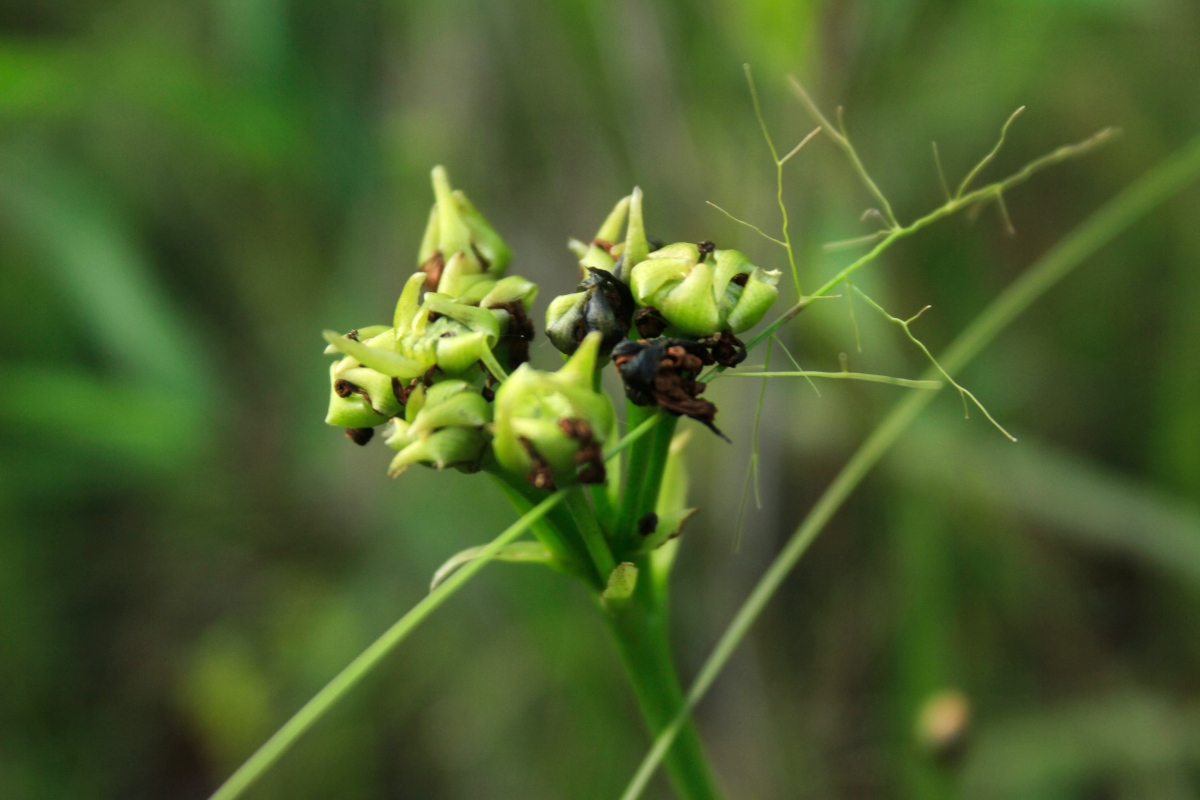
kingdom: Plantae
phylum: Tracheophyta
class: Magnoliopsida
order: Caryophyllales
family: Droseraceae
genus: Dionaea
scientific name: Dionaea muscipula
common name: Venus flytrap
